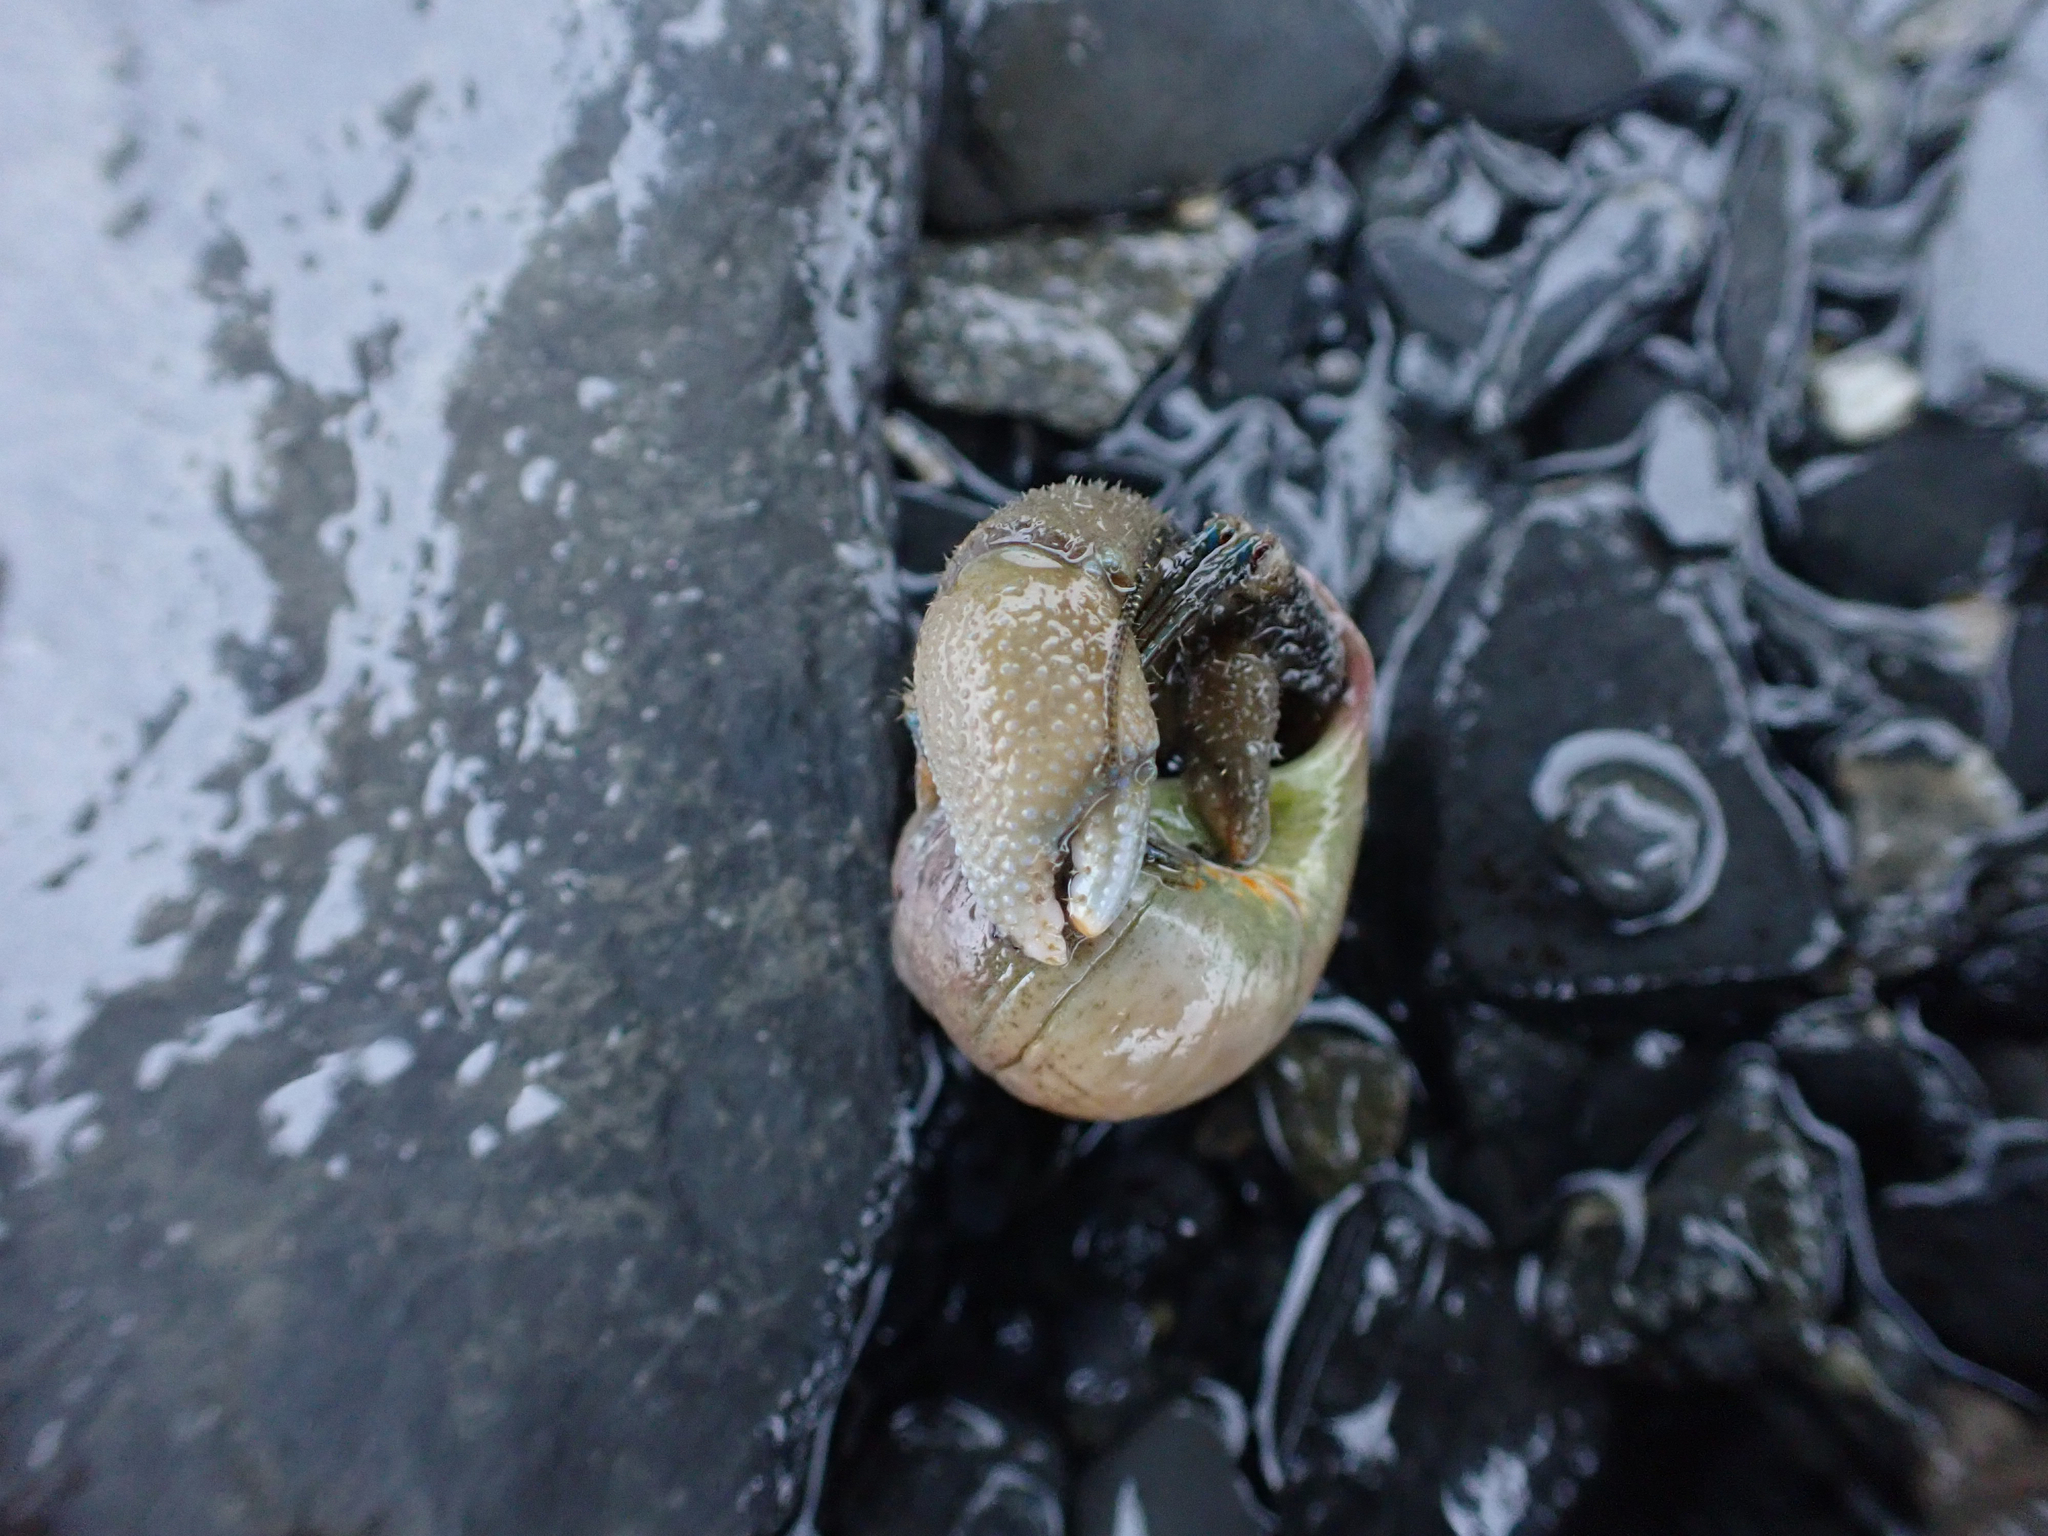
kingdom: Animalia
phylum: Arthropoda
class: Malacostraca
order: Decapoda
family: Paguridae
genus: Pagurus
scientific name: Pagurus hirsutiusculus
